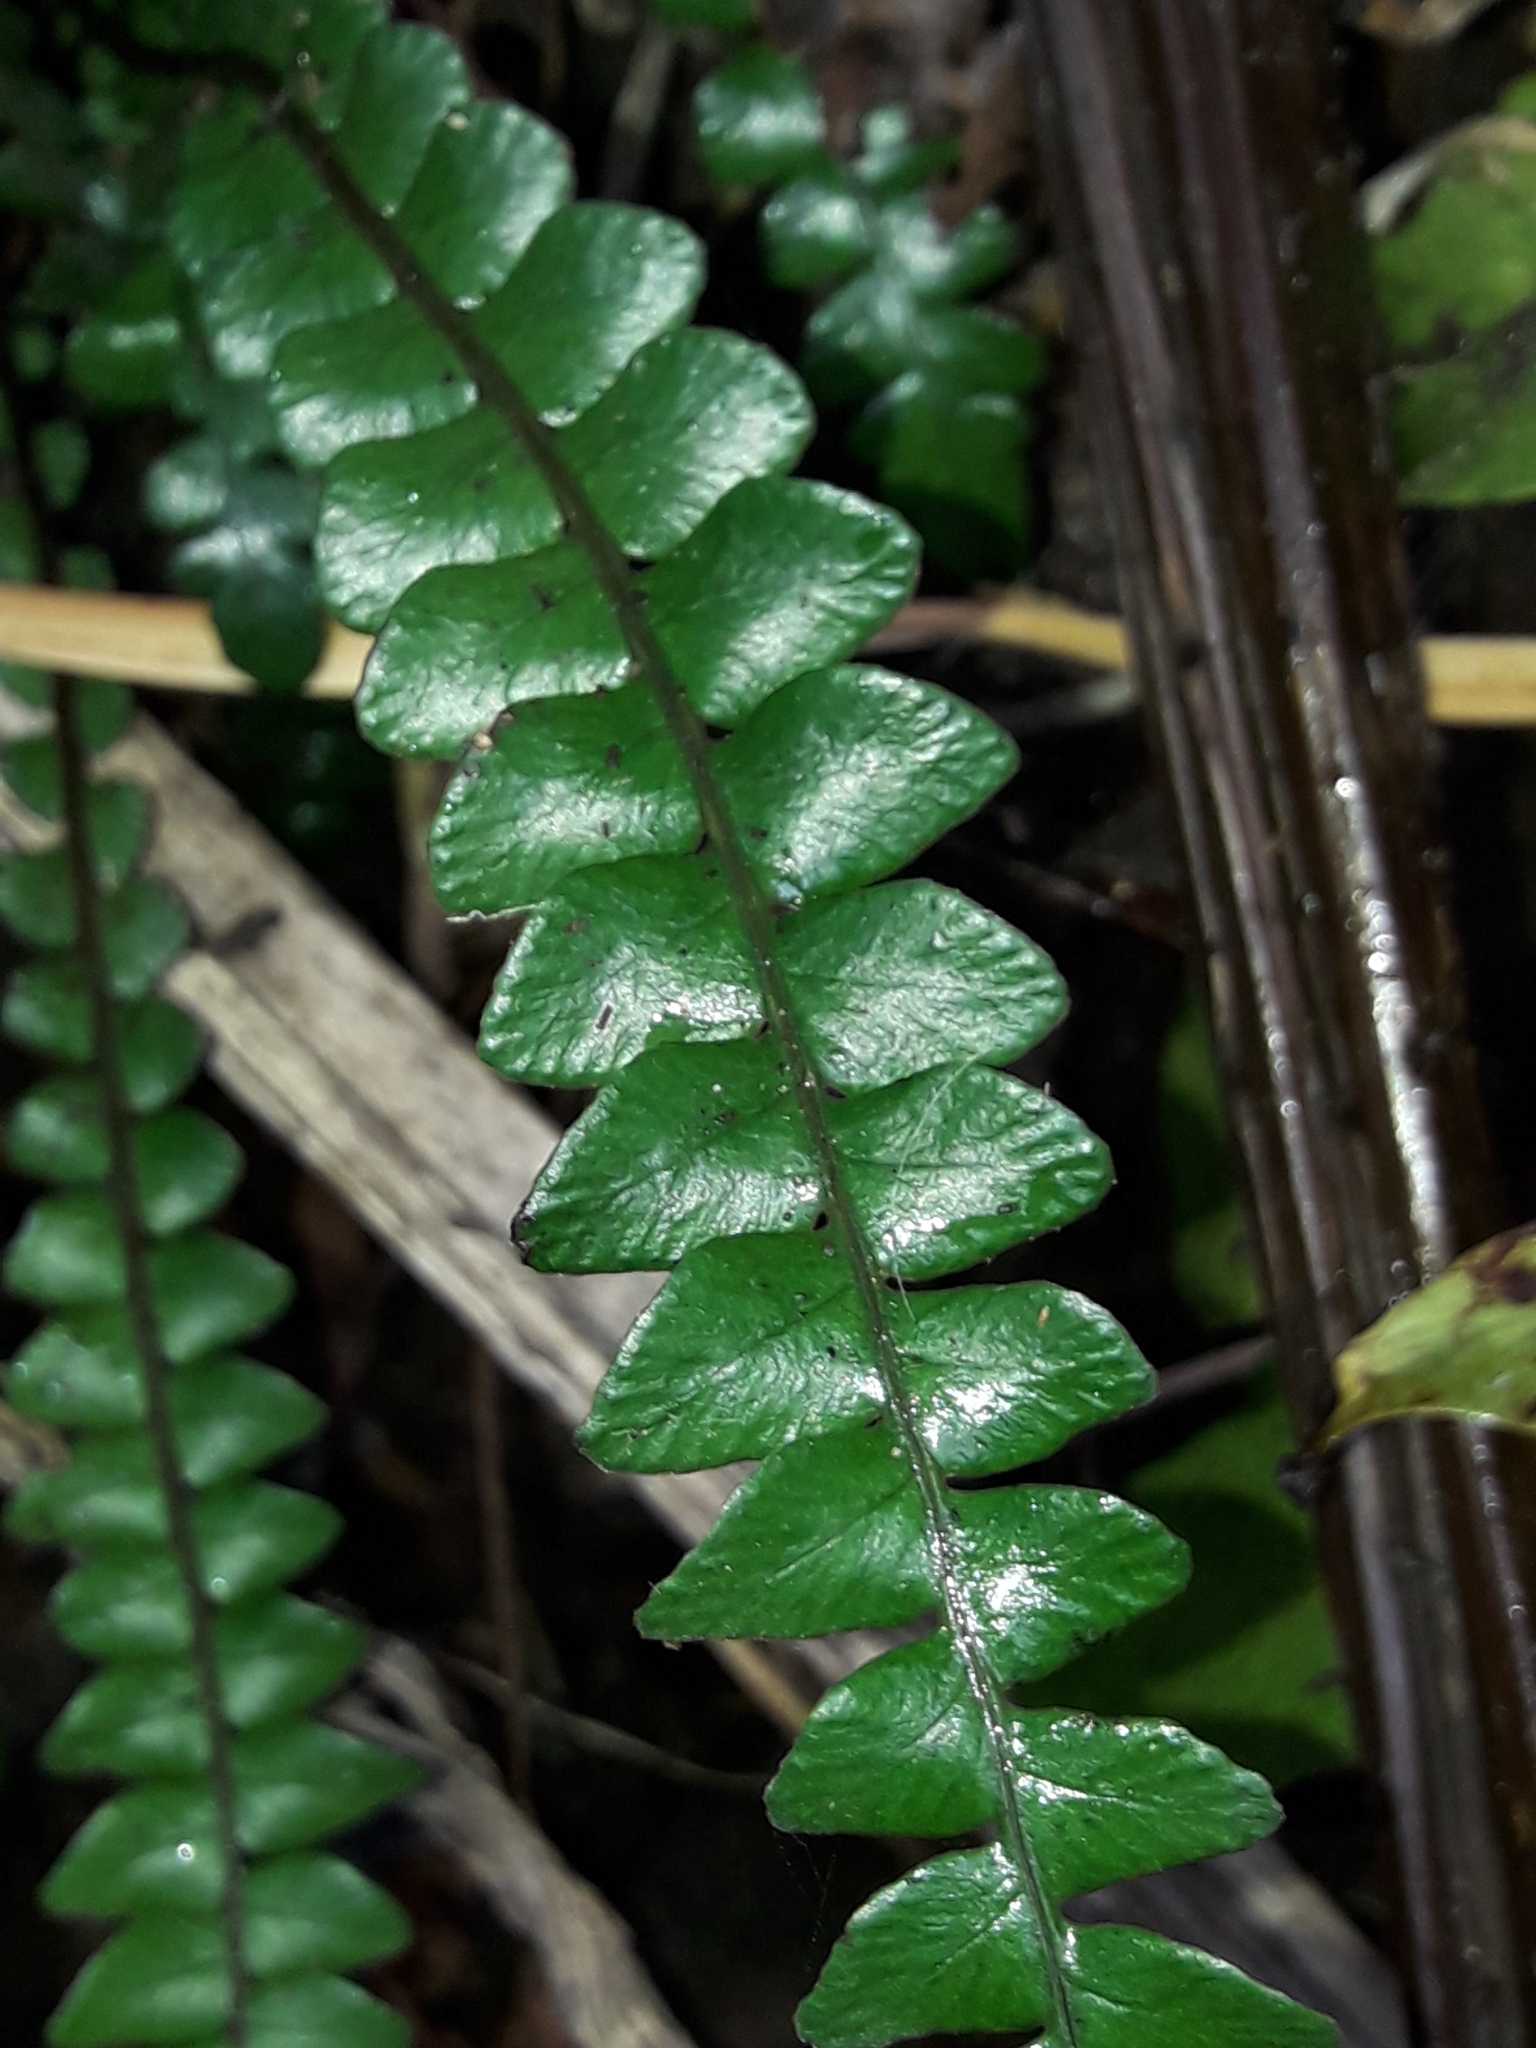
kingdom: Plantae
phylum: Tracheophyta
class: Polypodiopsida
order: Polypodiales
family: Blechnaceae
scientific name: Blechnaceae
